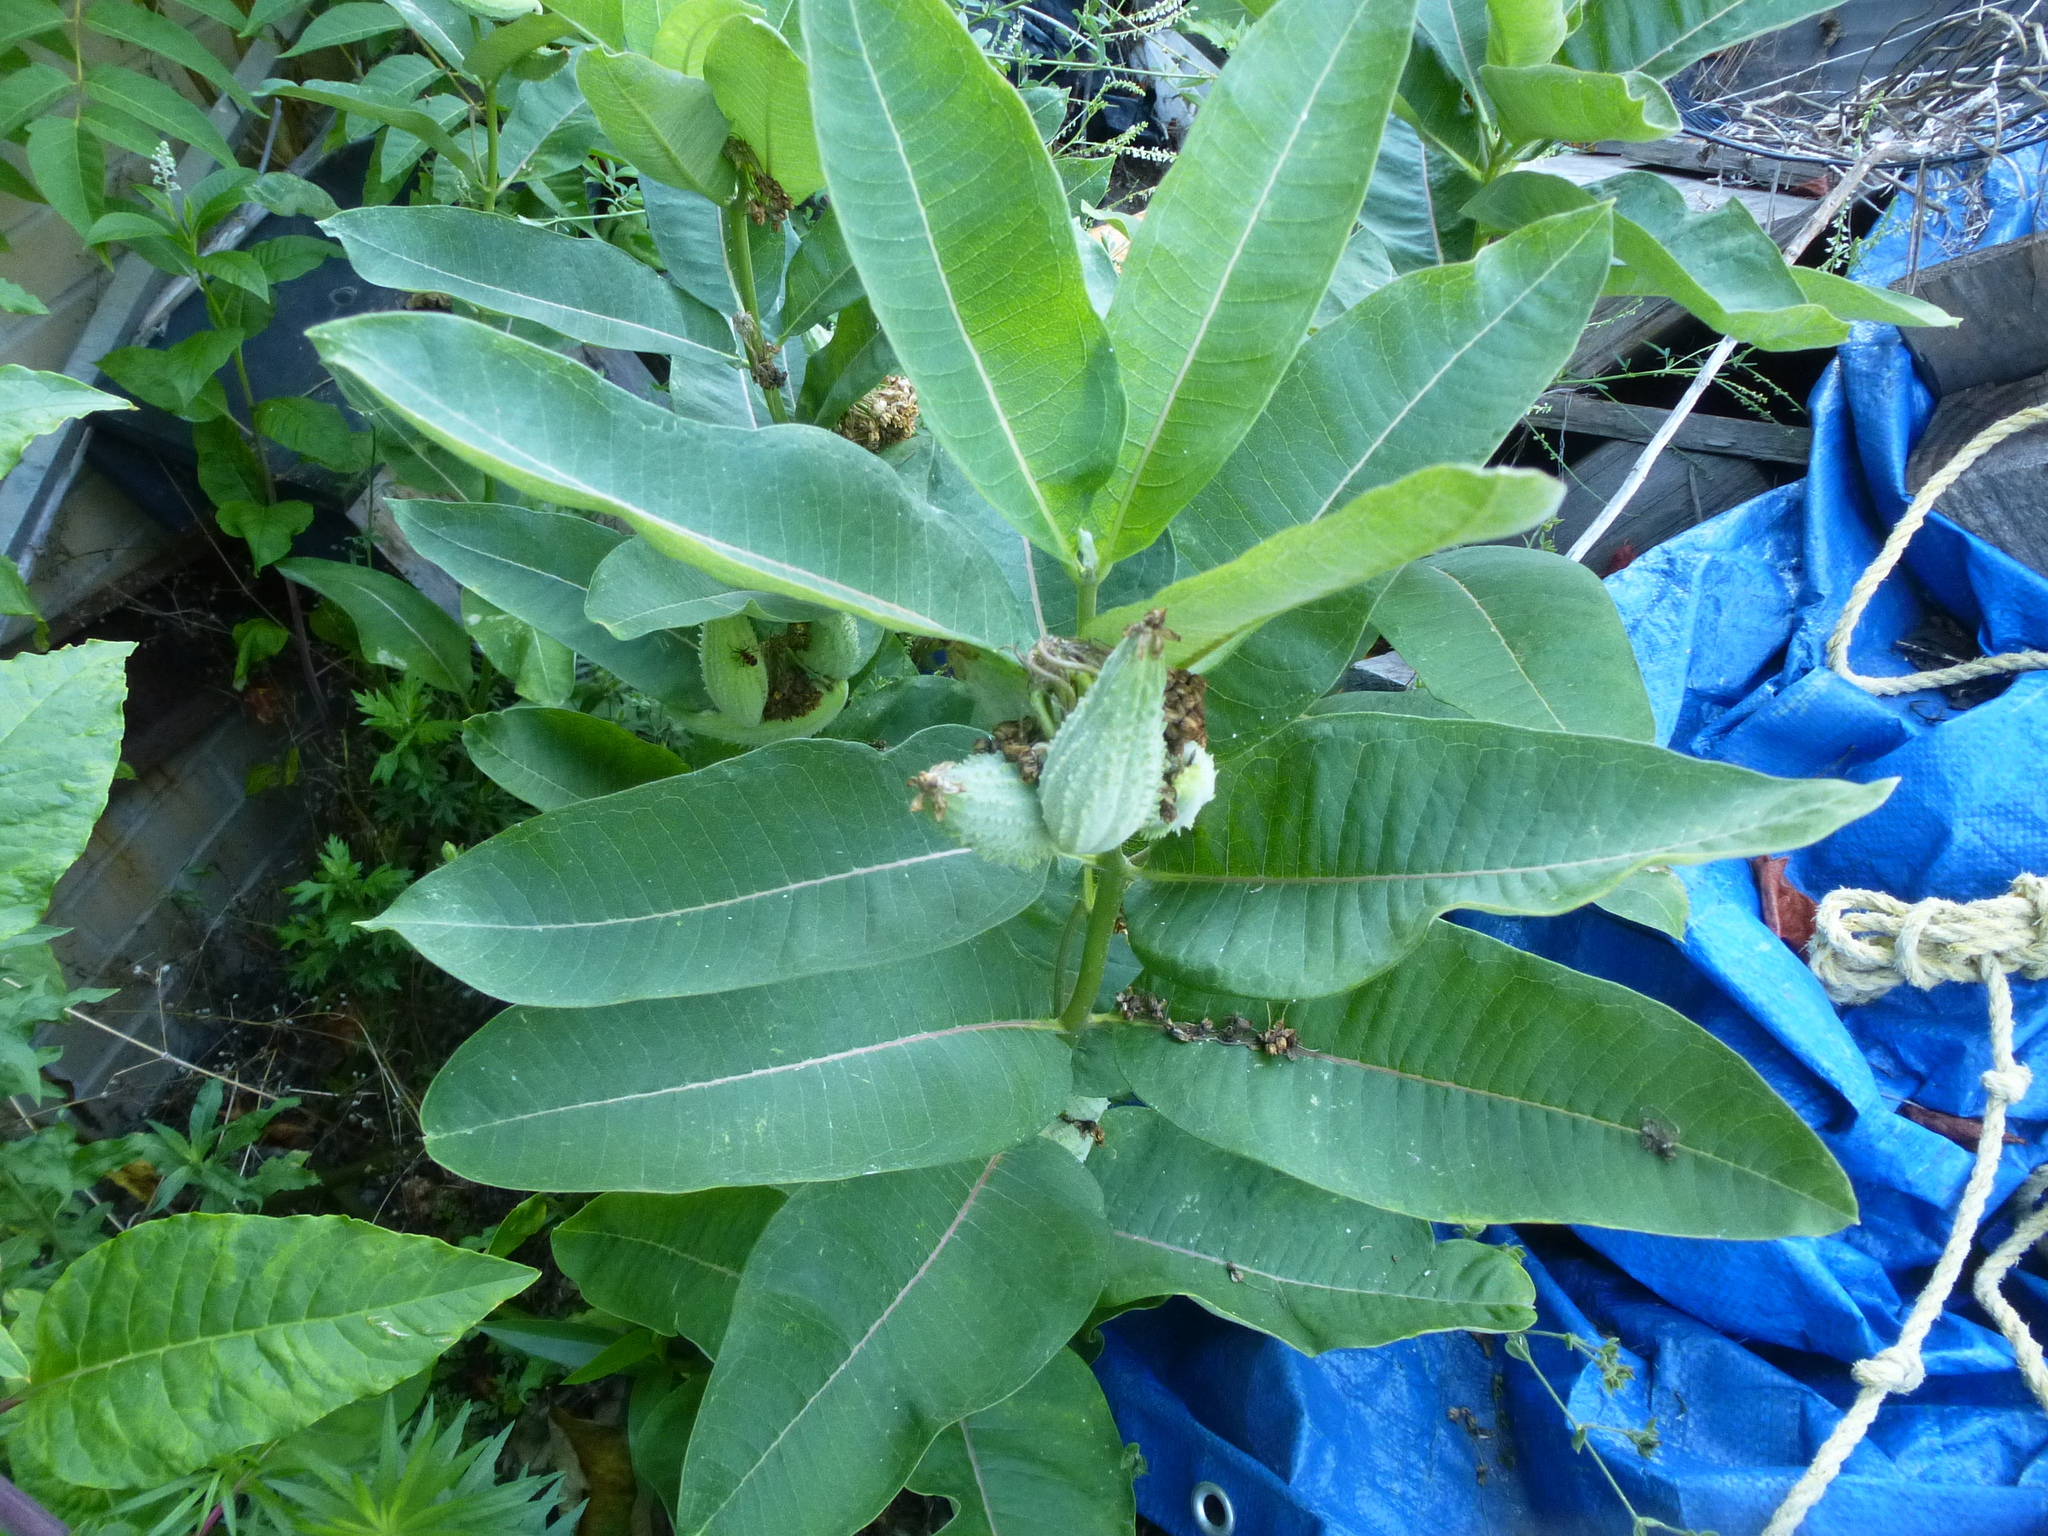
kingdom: Plantae
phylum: Tracheophyta
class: Magnoliopsida
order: Gentianales
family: Apocynaceae
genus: Asclepias
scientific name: Asclepias syriaca
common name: Common milkweed
